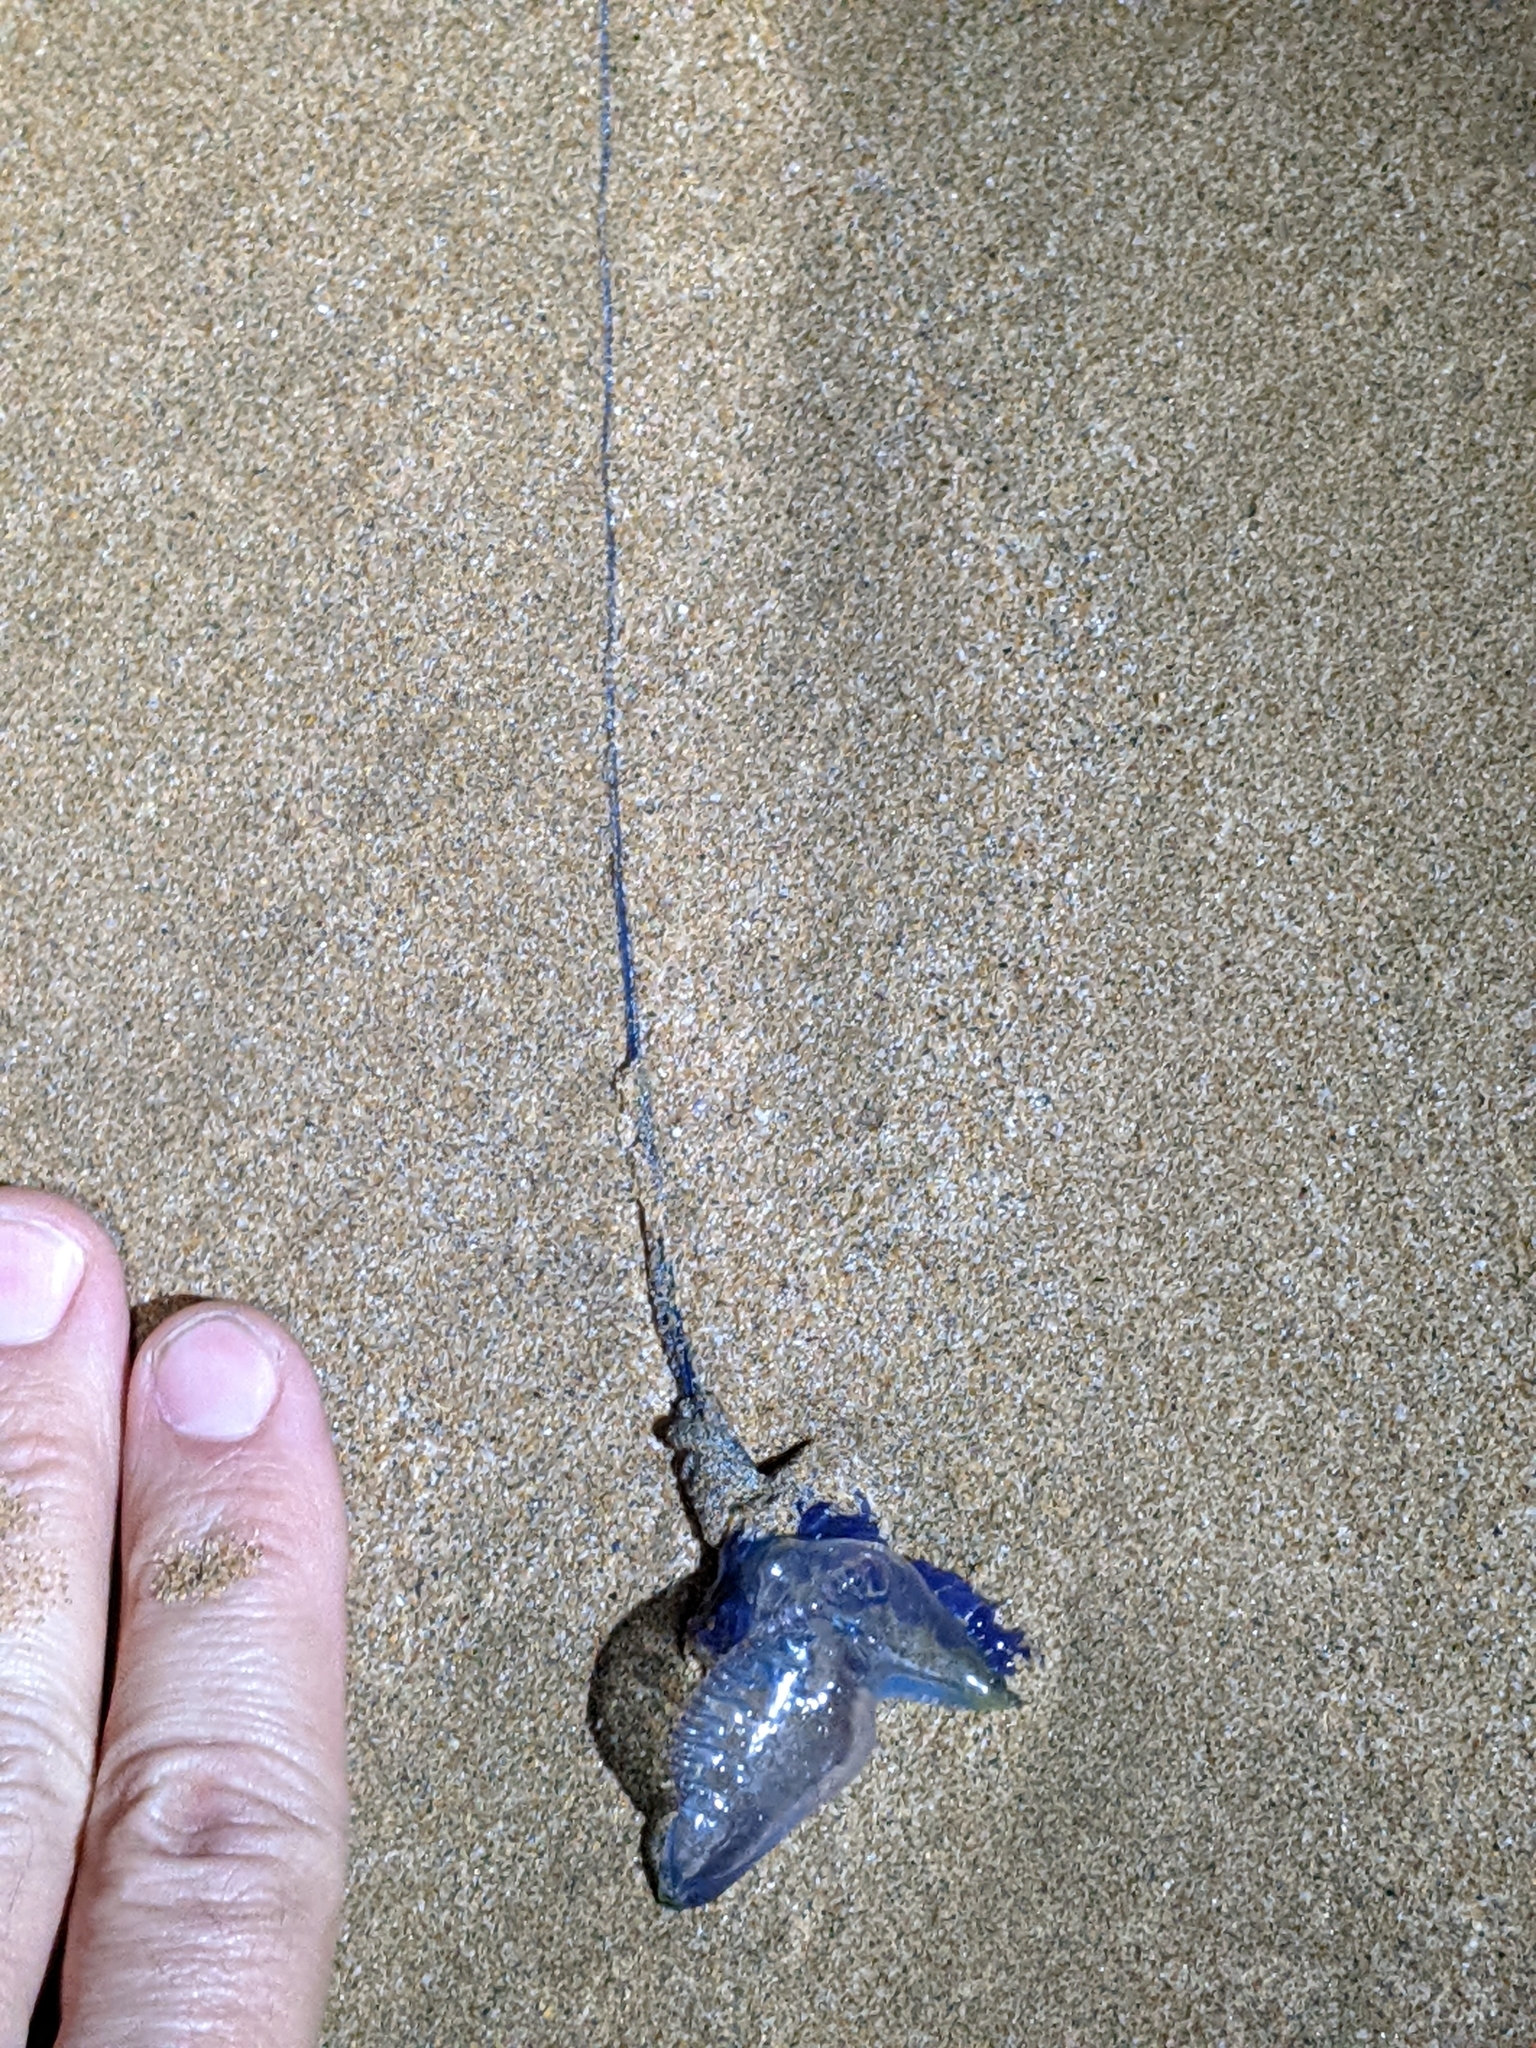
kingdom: Animalia
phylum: Cnidaria
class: Hydrozoa
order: Siphonophorae
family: Physaliidae
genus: Physalia
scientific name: Physalia physalis
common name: Portuguese man-of-war
